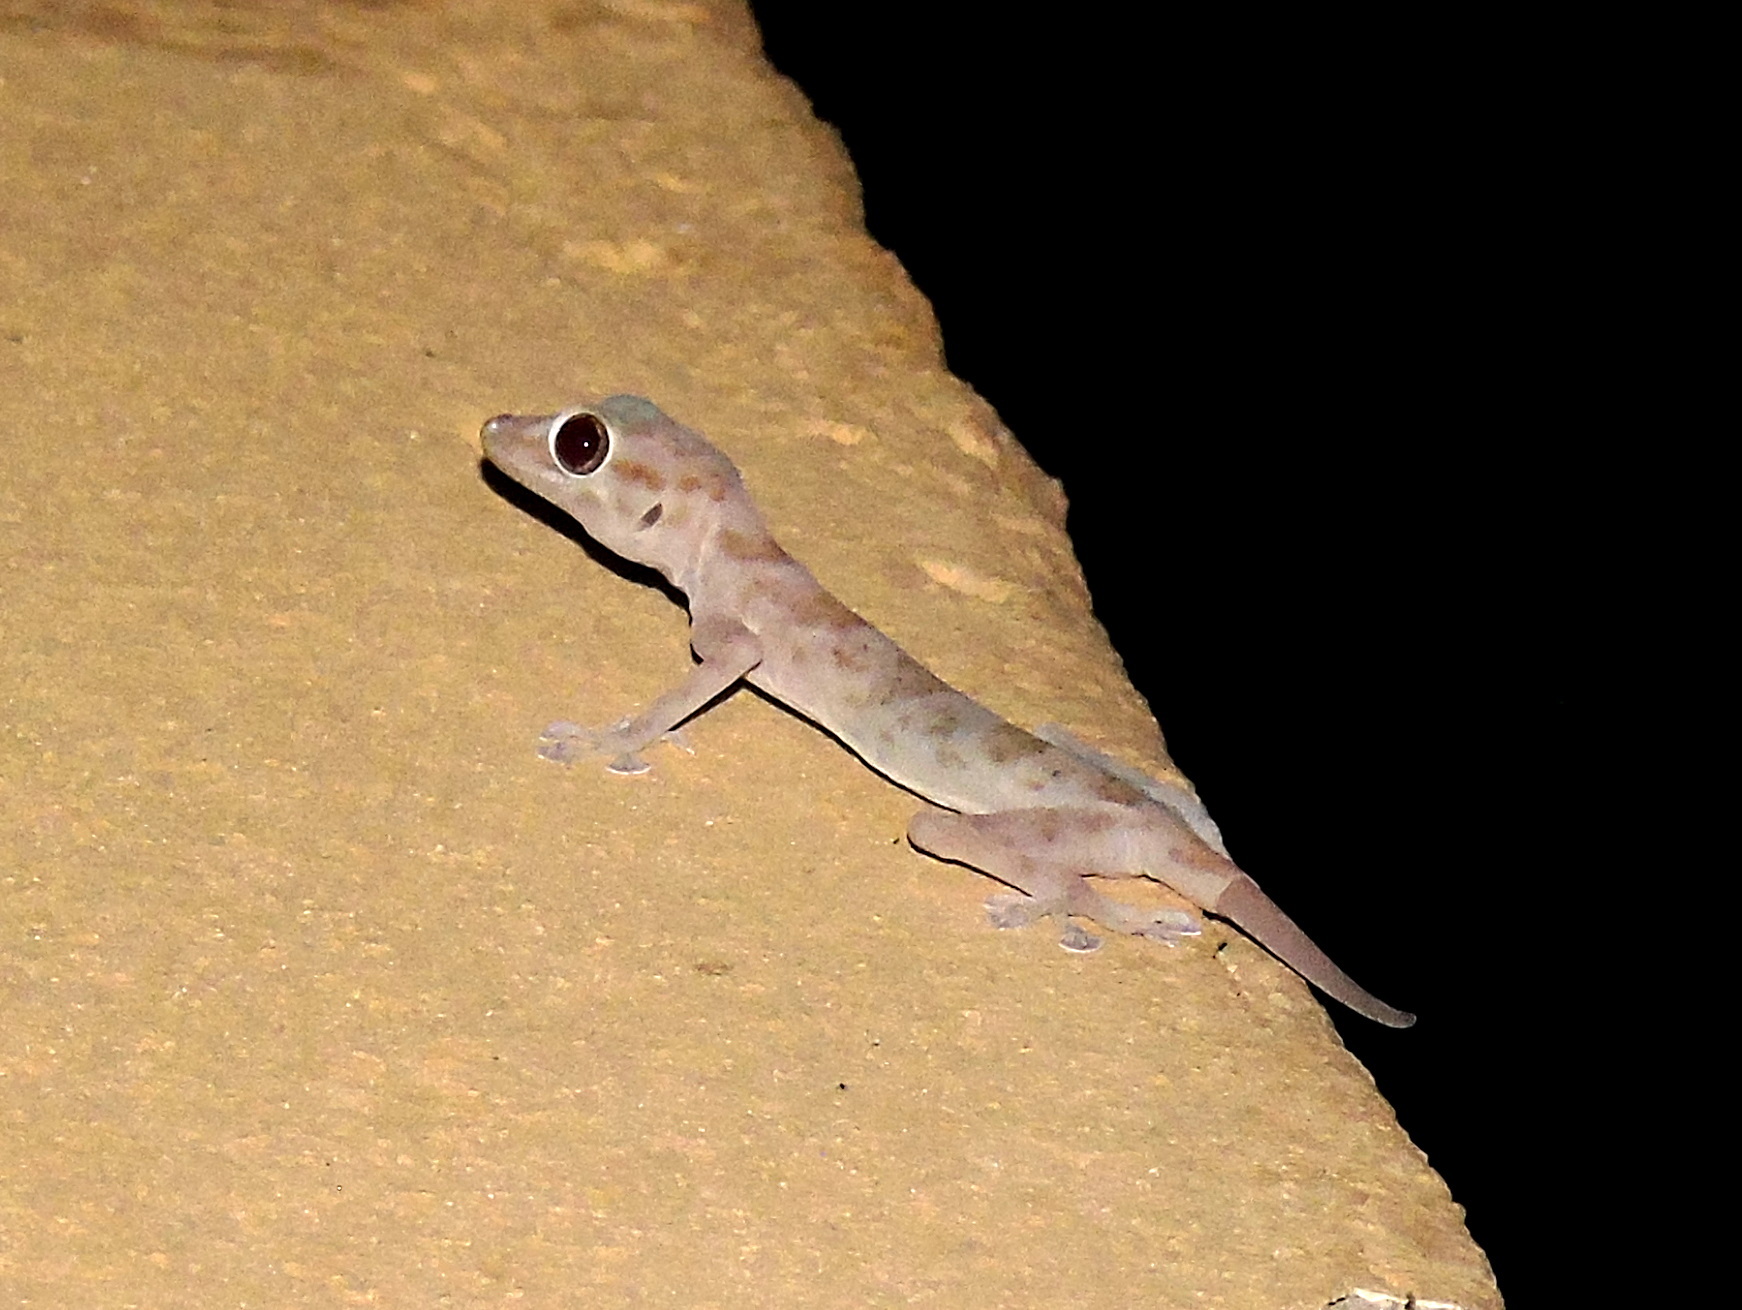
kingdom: Animalia
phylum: Chordata
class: Squamata
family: Phyllodactylidae
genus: Ptyodactylus
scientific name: Ptyodactylus hasselquistii
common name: Hasselquist’s fan-footed gecko
